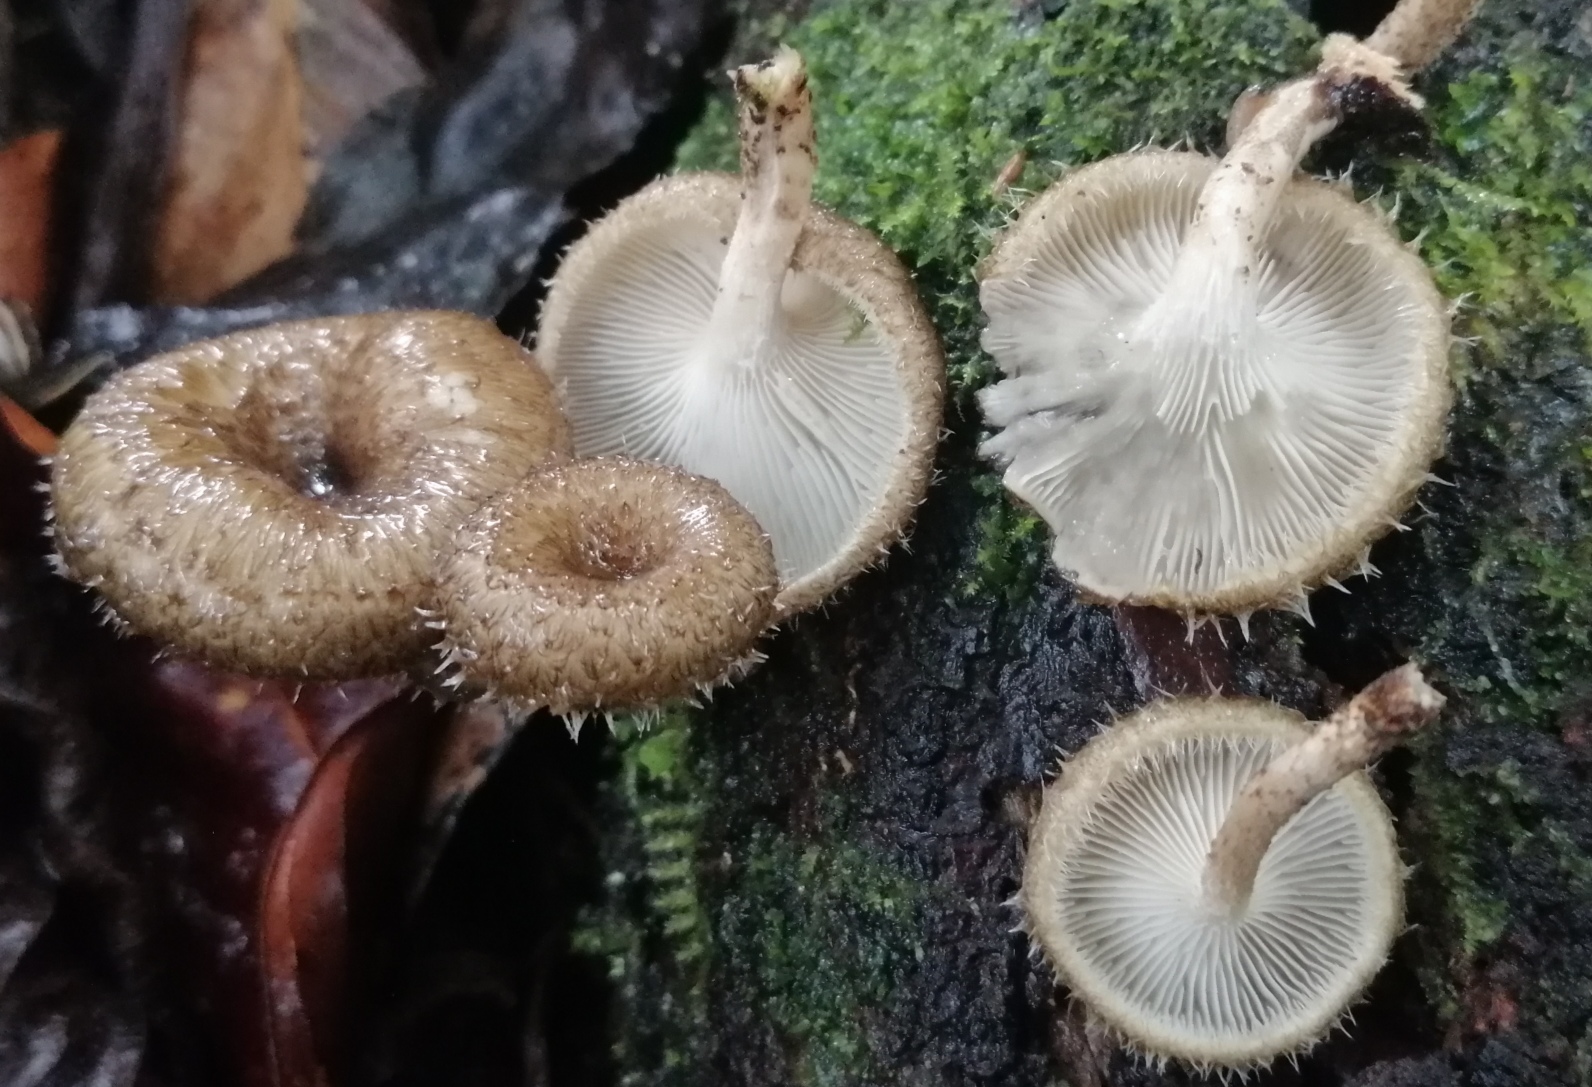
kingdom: Fungi
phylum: Basidiomycota
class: Agaricomycetes
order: Polyporales
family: Polyporaceae
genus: Lentinus
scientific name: Lentinus crinitus
